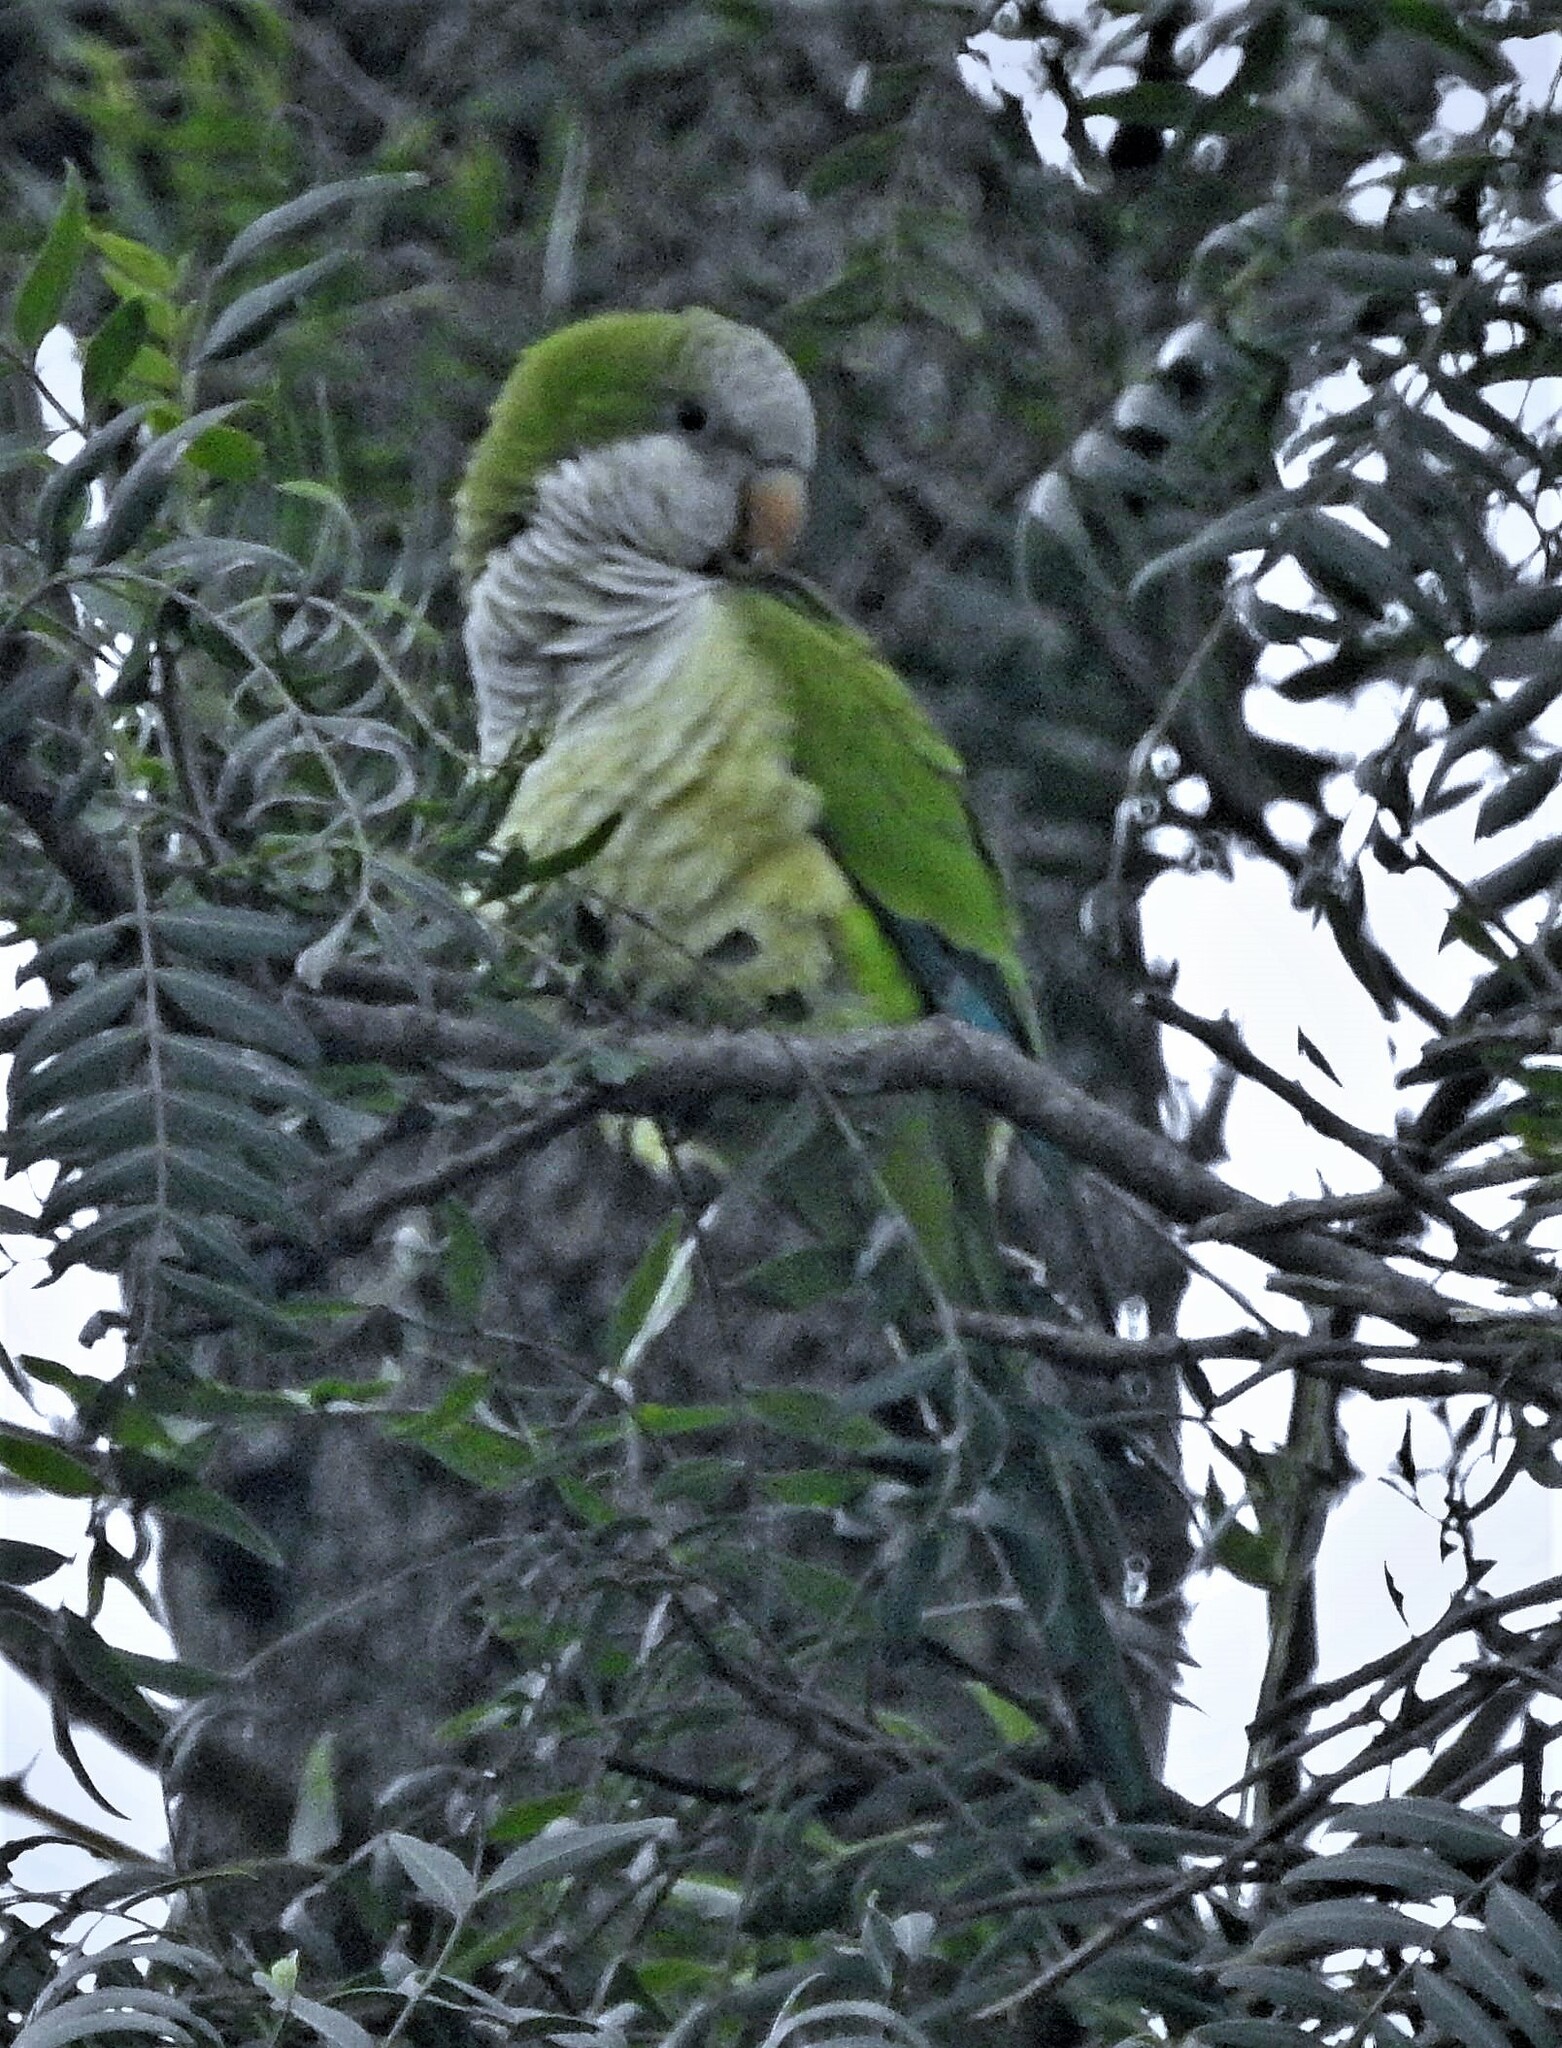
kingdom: Animalia
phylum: Chordata
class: Aves
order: Psittaciformes
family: Psittacidae
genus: Myiopsitta
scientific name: Myiopsitta monachus
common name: Monk parakeet
